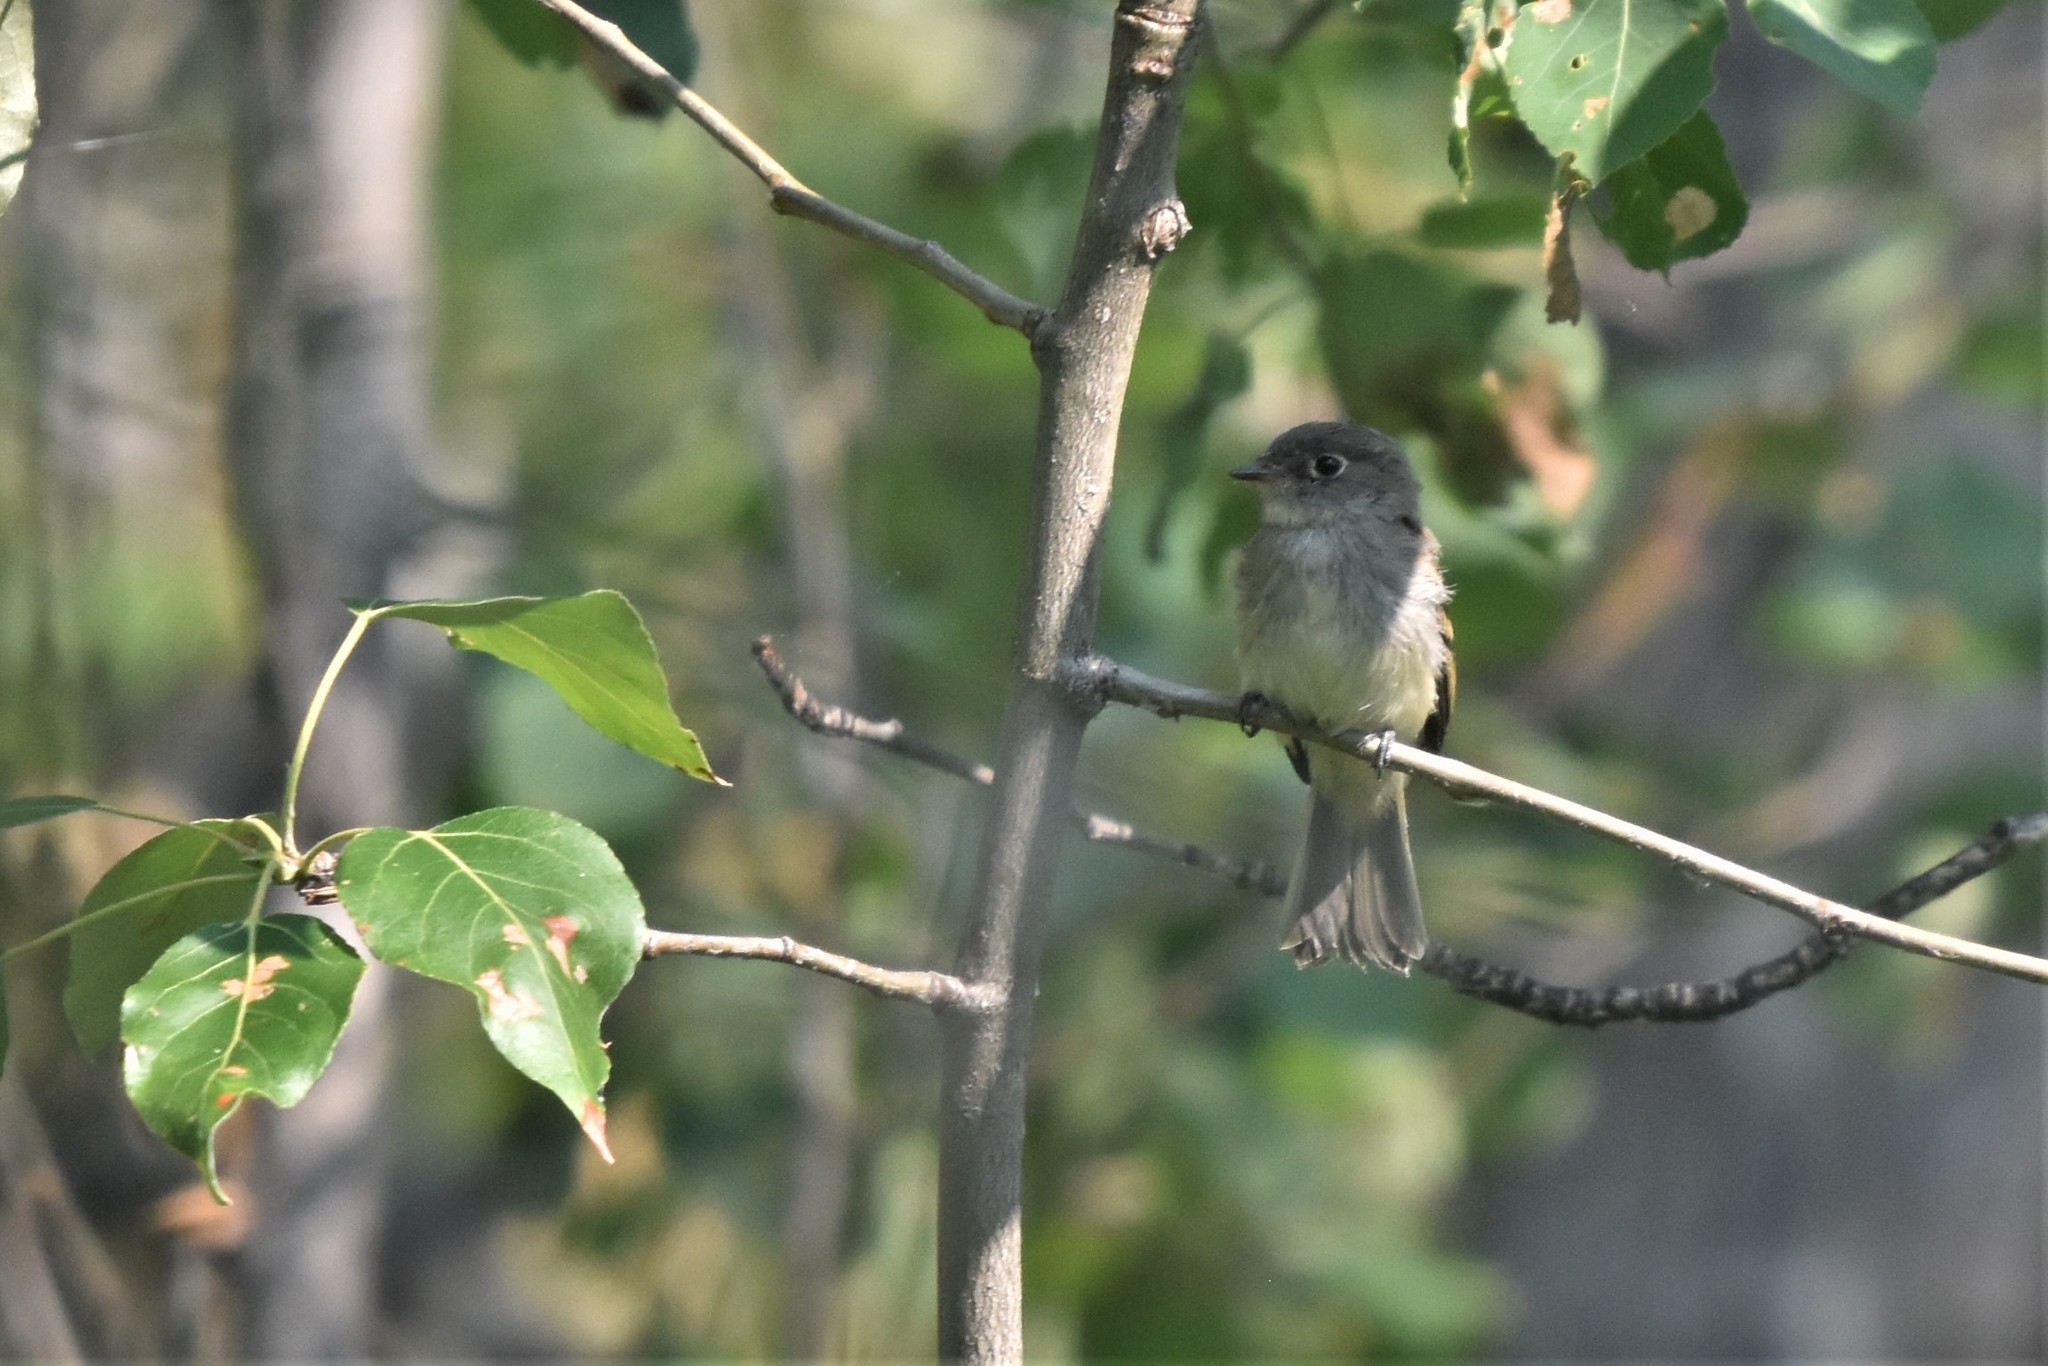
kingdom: Animalia
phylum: Chordata
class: Aves
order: Passeriformes
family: Tyrannidae
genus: Empidonax
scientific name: Empidonax minimus
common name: Least flycatcher
